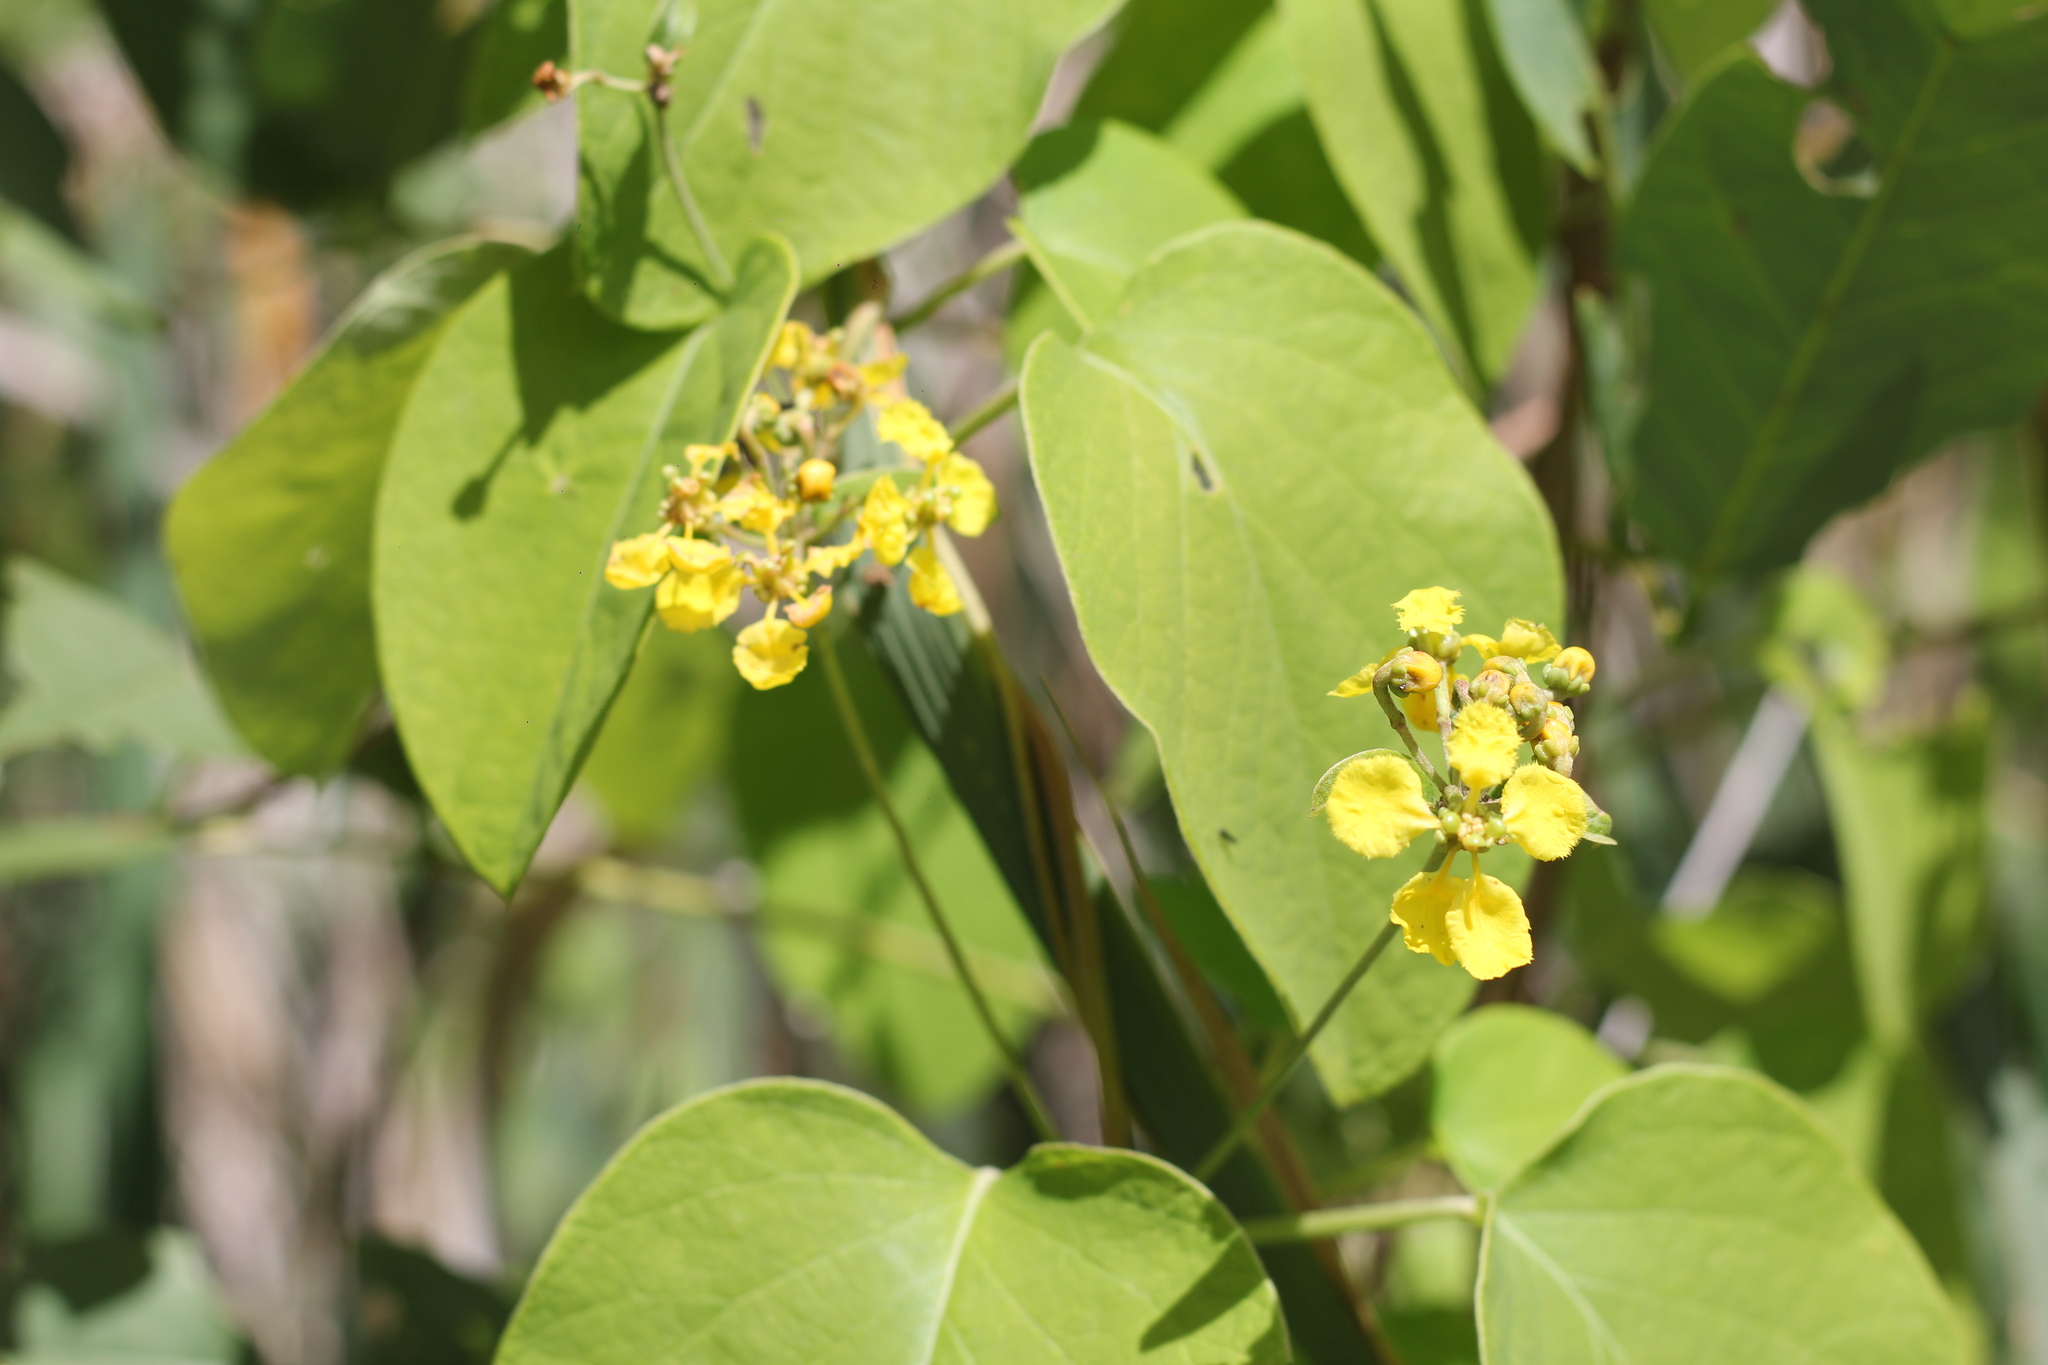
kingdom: Plantae
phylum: Tracheophyta
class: Magnoliopsida
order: Malpighiales
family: Malpighiaceae
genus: Stigmaphyllon
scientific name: Stigmaphyllon bonariense
